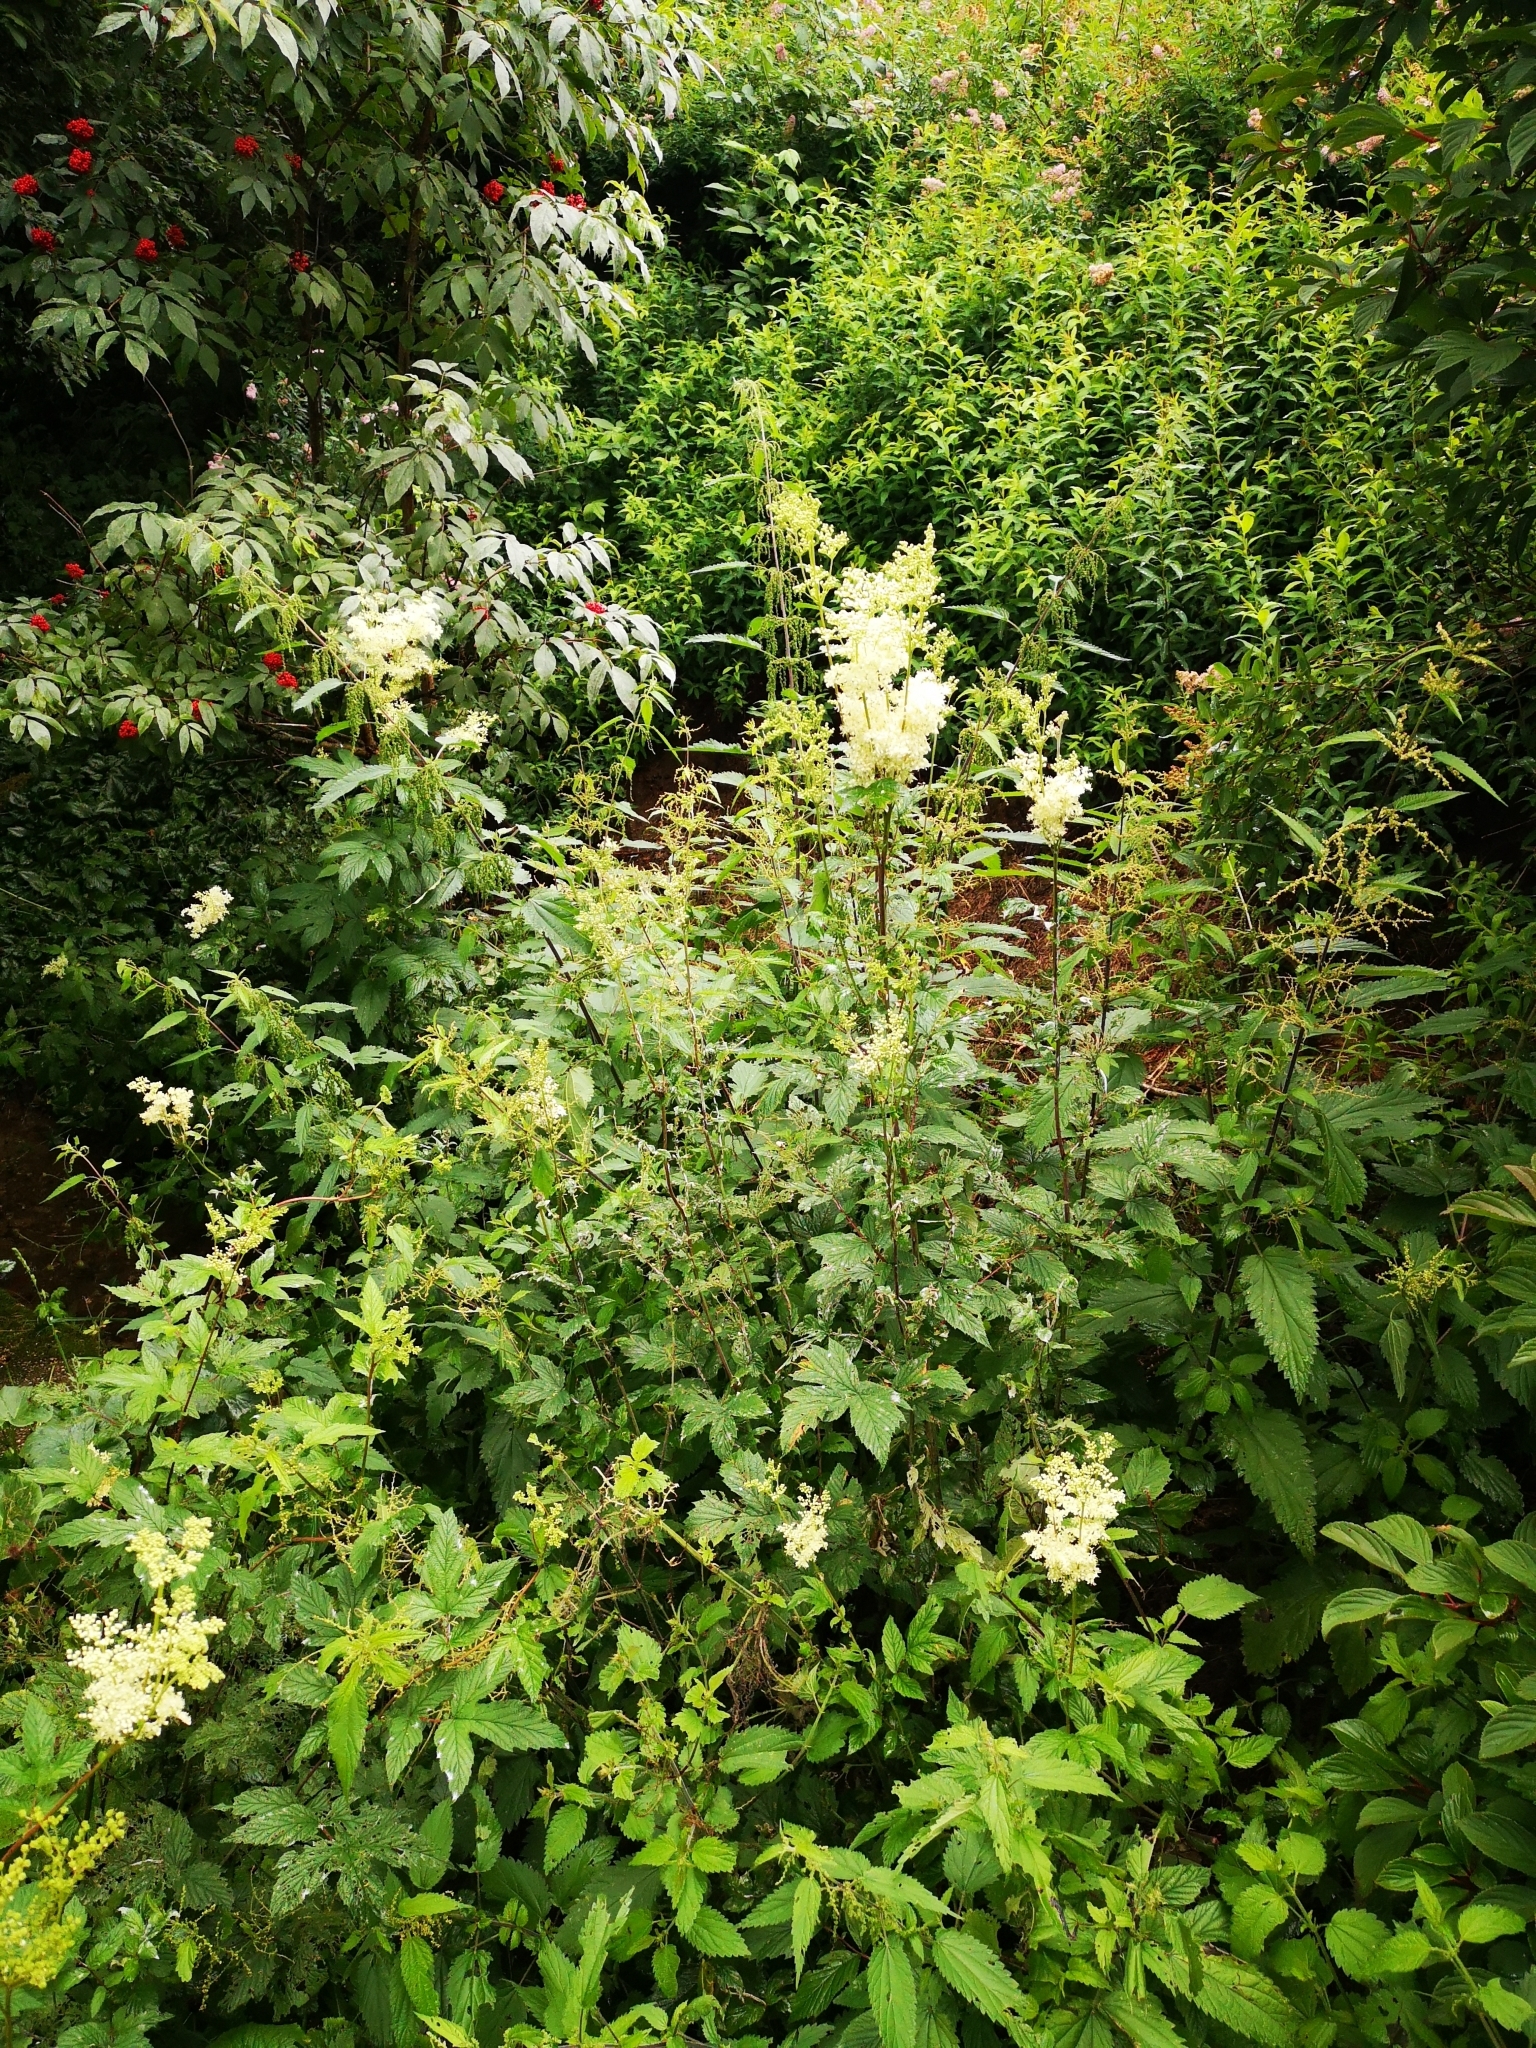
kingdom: Plantae
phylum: Tracheophyta
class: Magnoliopsida
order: Rosales
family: Rosaceae
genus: Filipendula
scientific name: Filipendula ulmaria
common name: Meadowsweet
